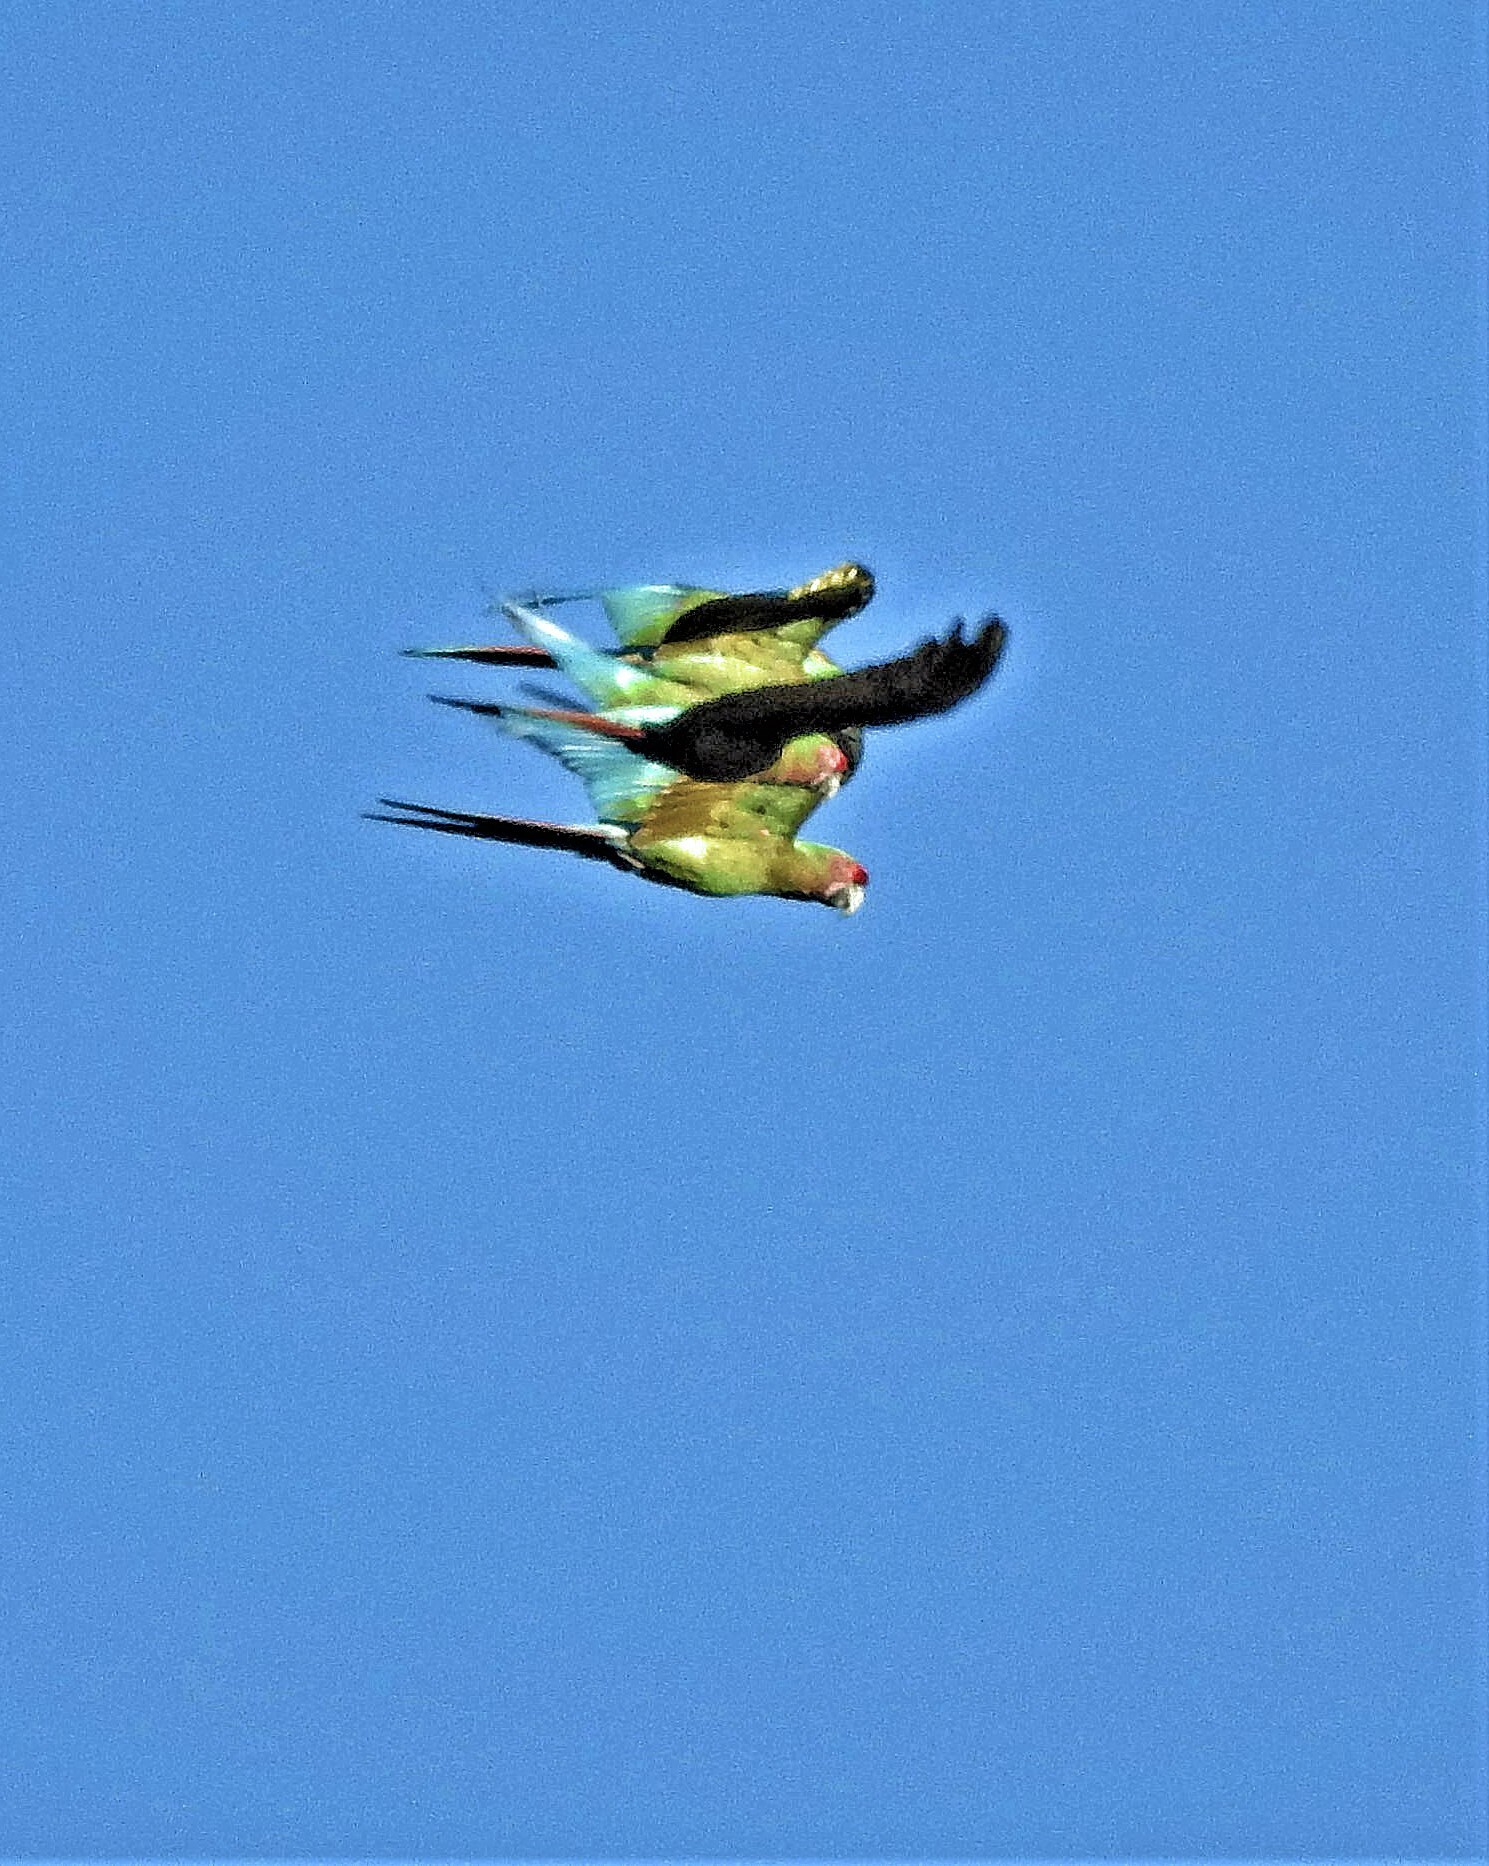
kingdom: Animalia
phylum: Chordata
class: Aves
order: Psittaciformes
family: Psittacidae
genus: Ara
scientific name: Ara militaris
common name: Military macaw
